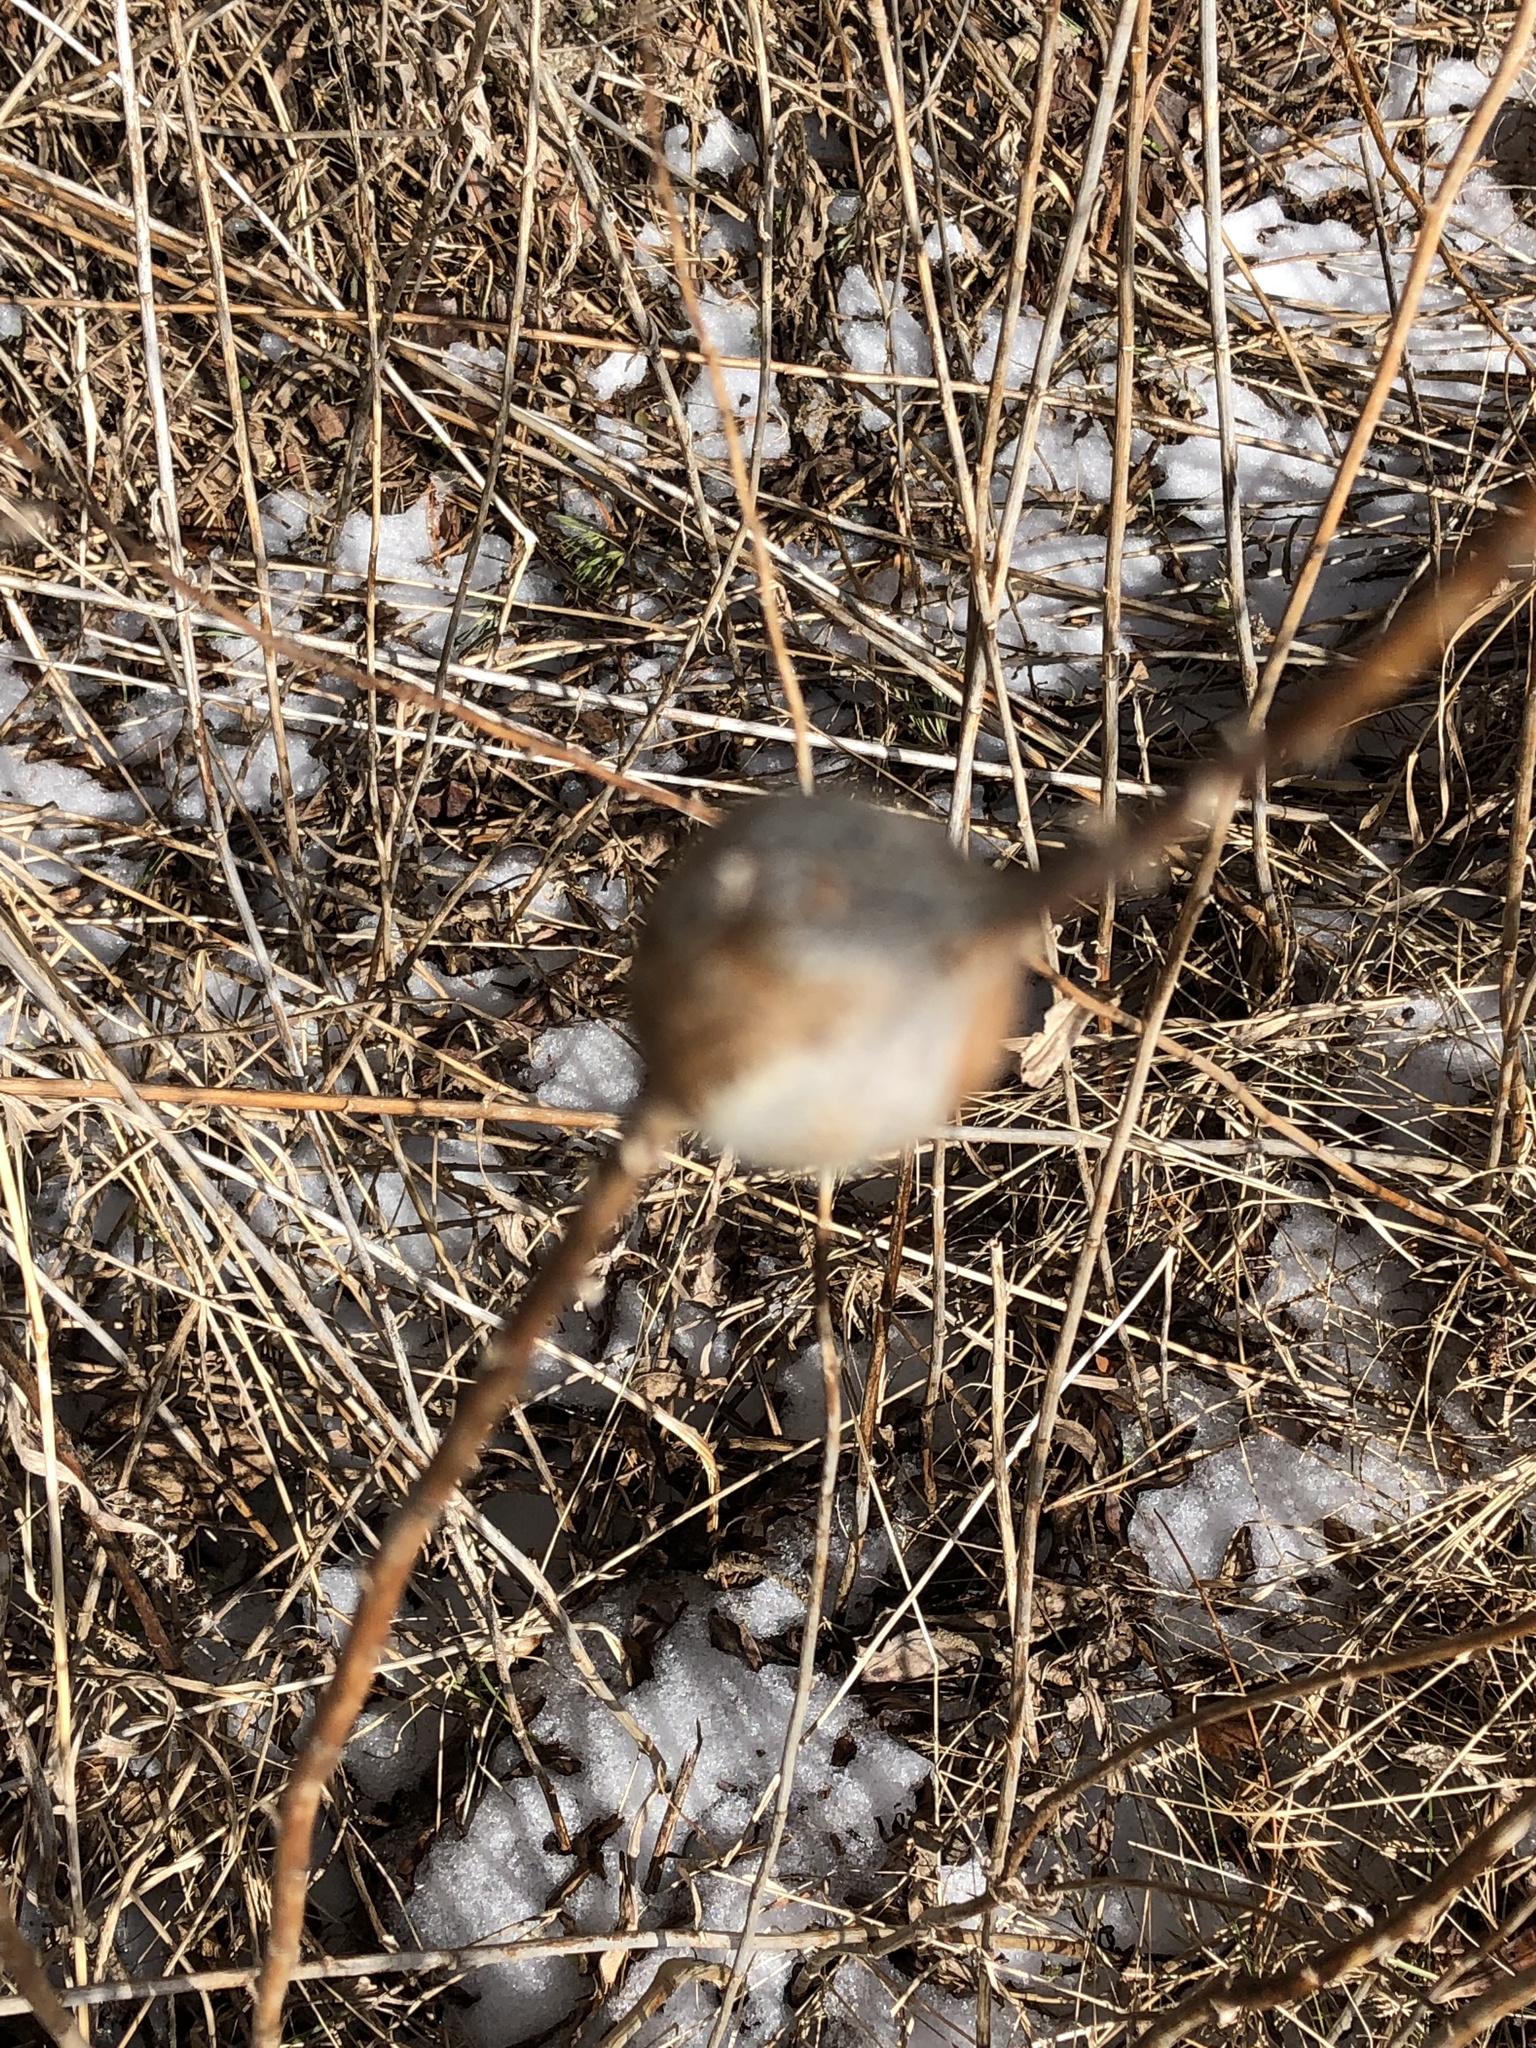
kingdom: Animalia
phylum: Arthropoda
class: Insecta
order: Diptera
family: Tephritidae
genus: Eurosta
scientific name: Eurosta solidaginis
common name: Goldenrod gall fly
